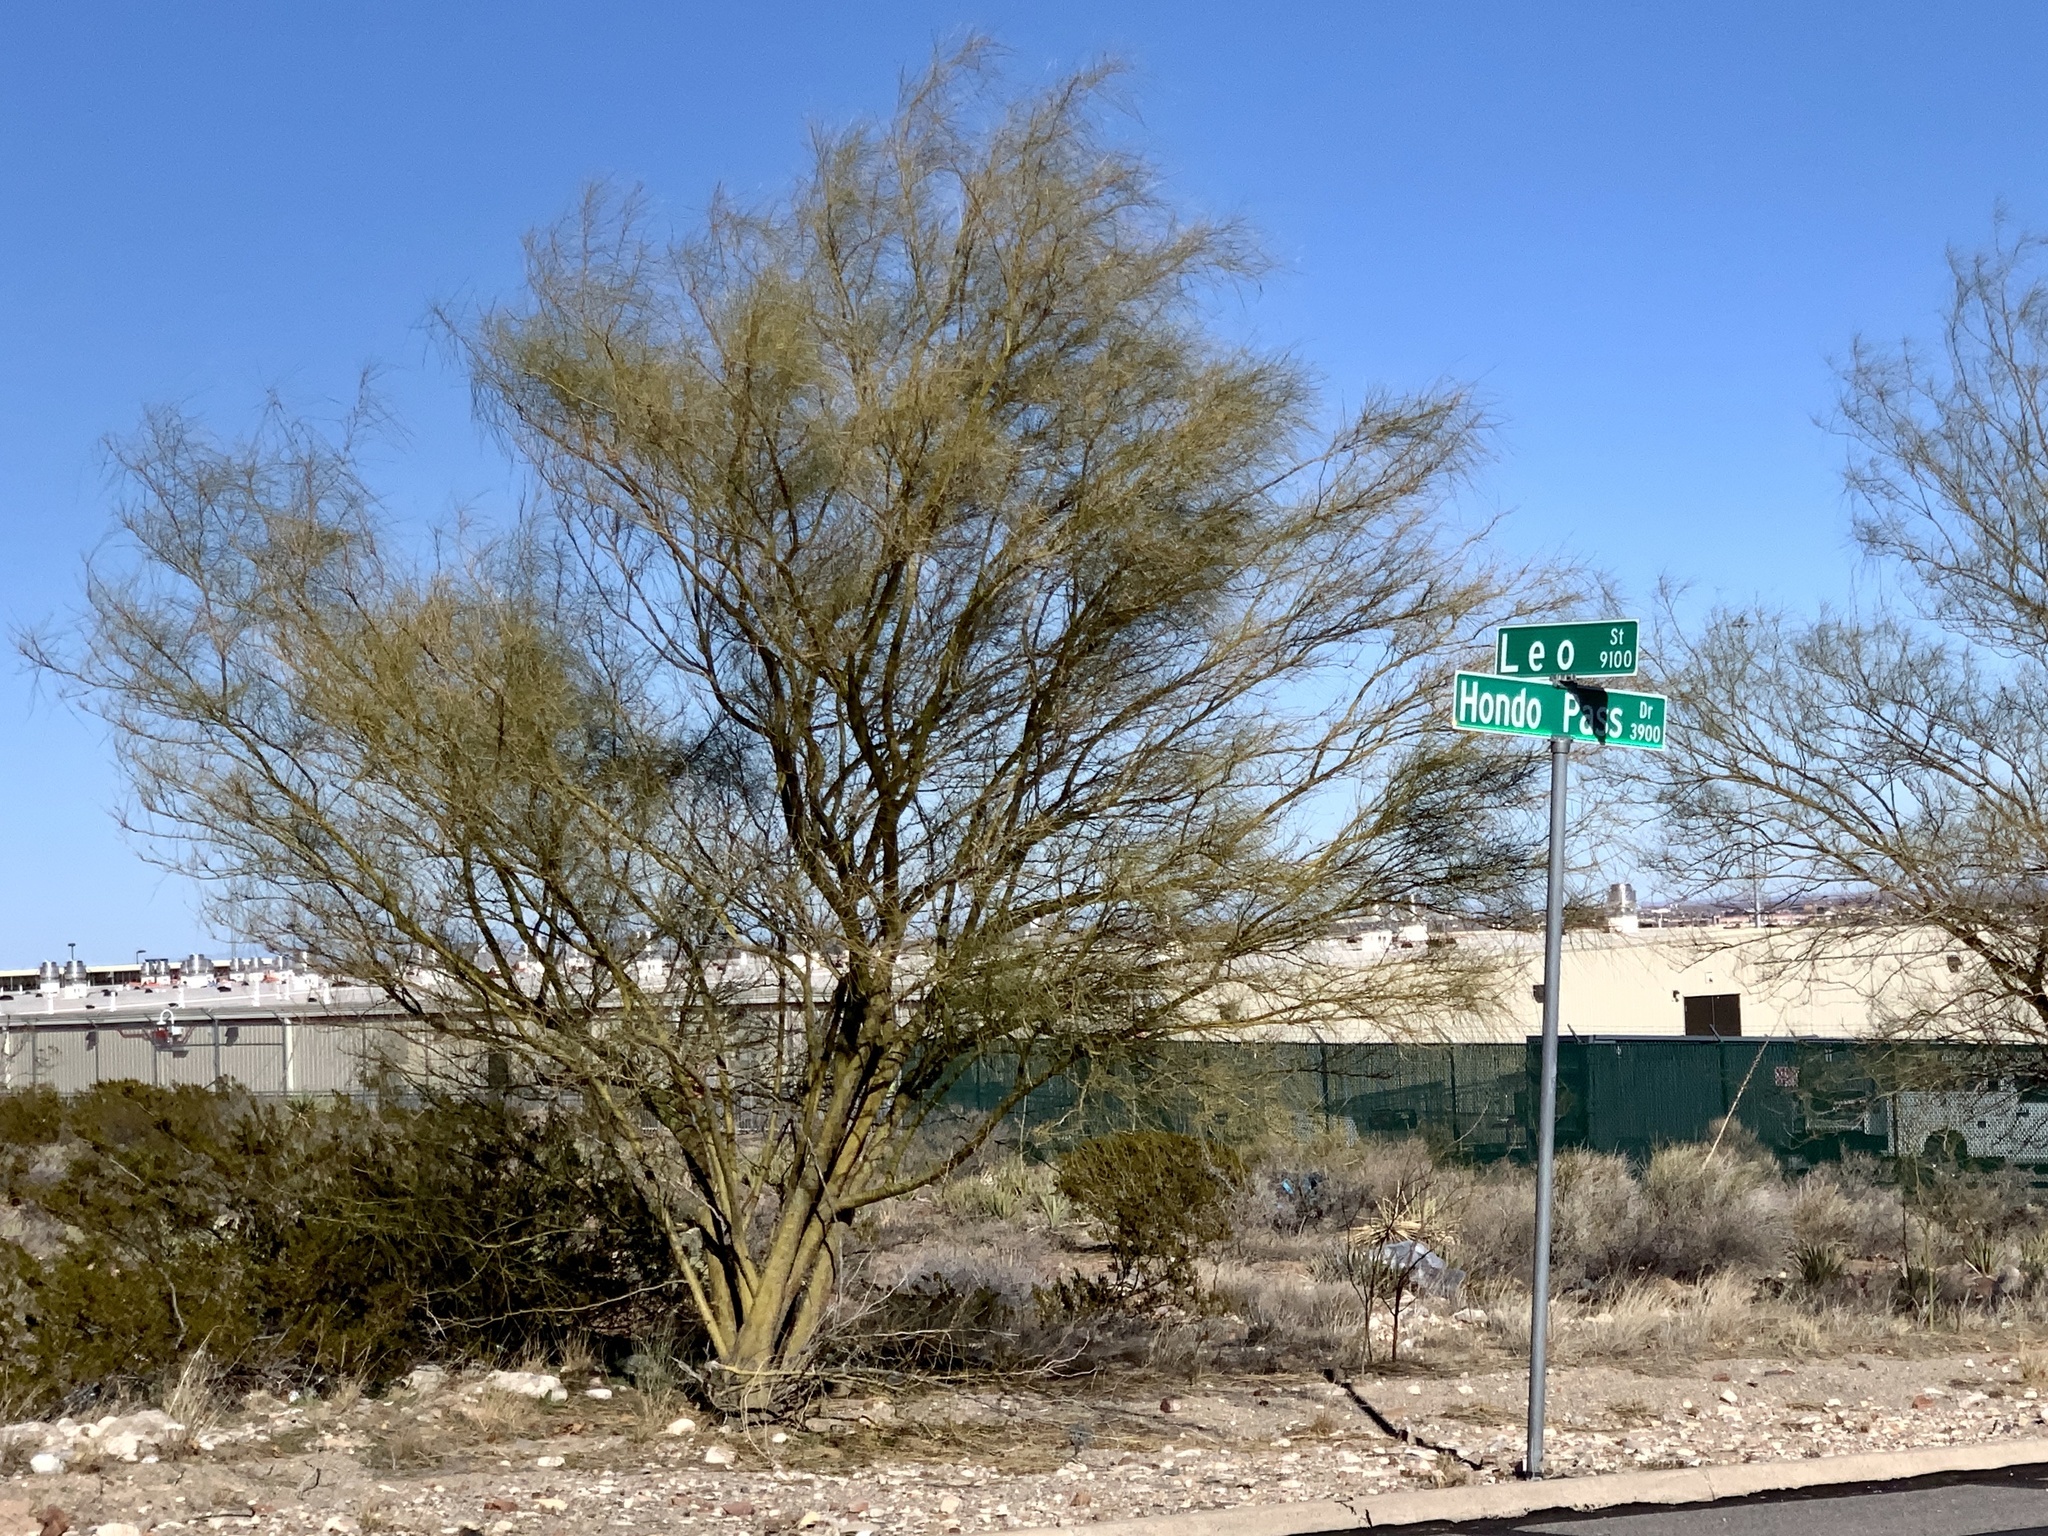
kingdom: Plantae
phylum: Tracheophyta
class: Magnoliopsida
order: Fabales
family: Fabaceae
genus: Parkinsonia
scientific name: Parkinsonia aculeata
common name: Jerusalem thorn
